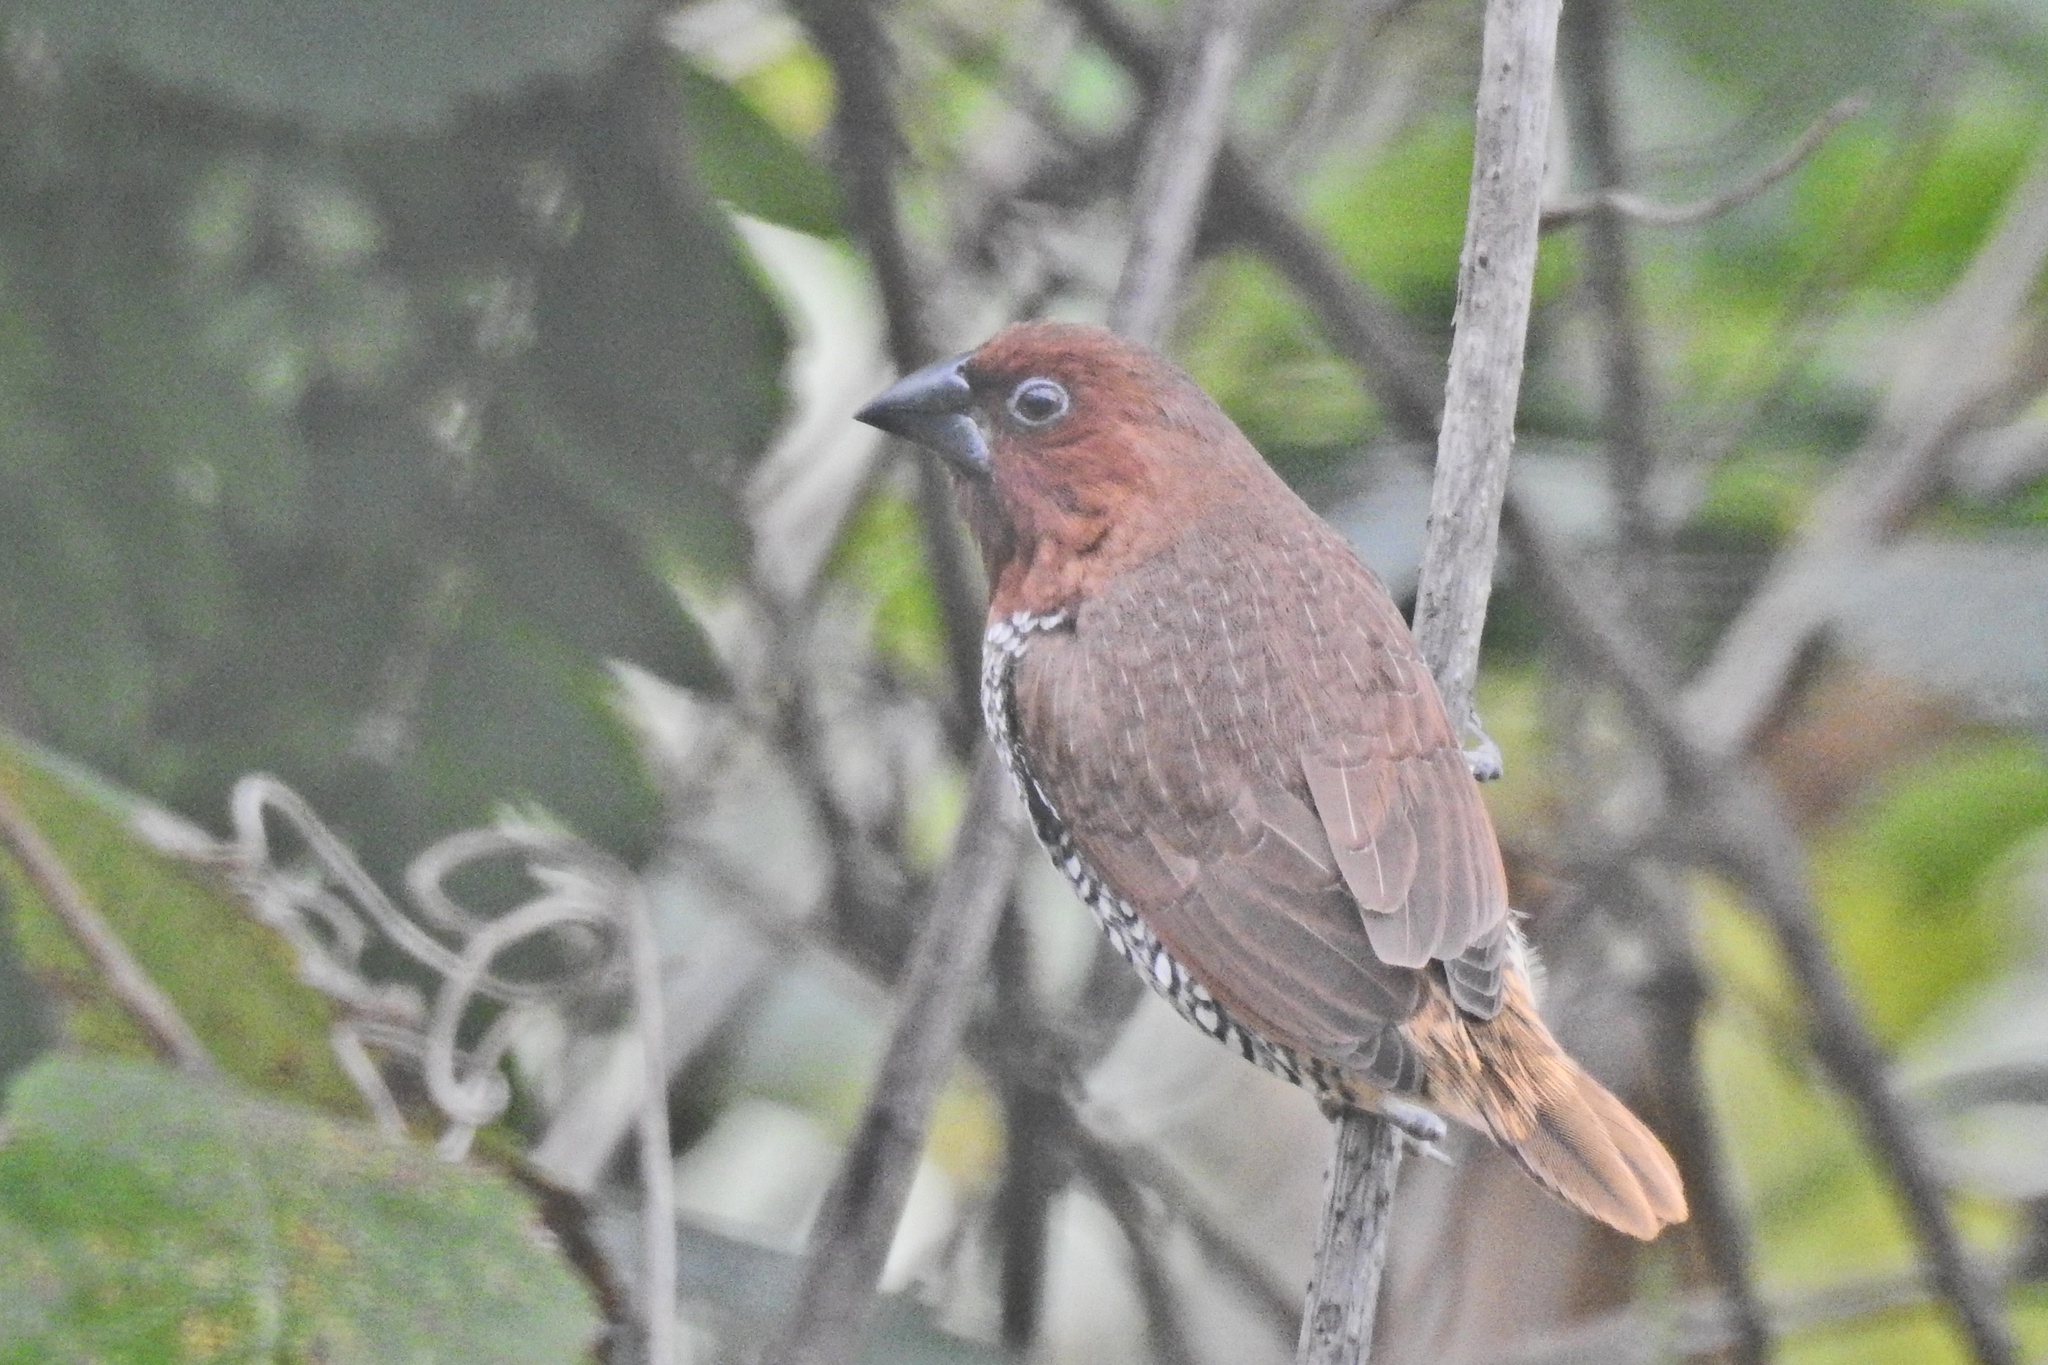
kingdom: Animalia
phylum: Chordata
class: Aves
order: Passeriformes
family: Estrildidae
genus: Lonchura
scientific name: Lonchura punctulata
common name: Scaly-breasted munia
